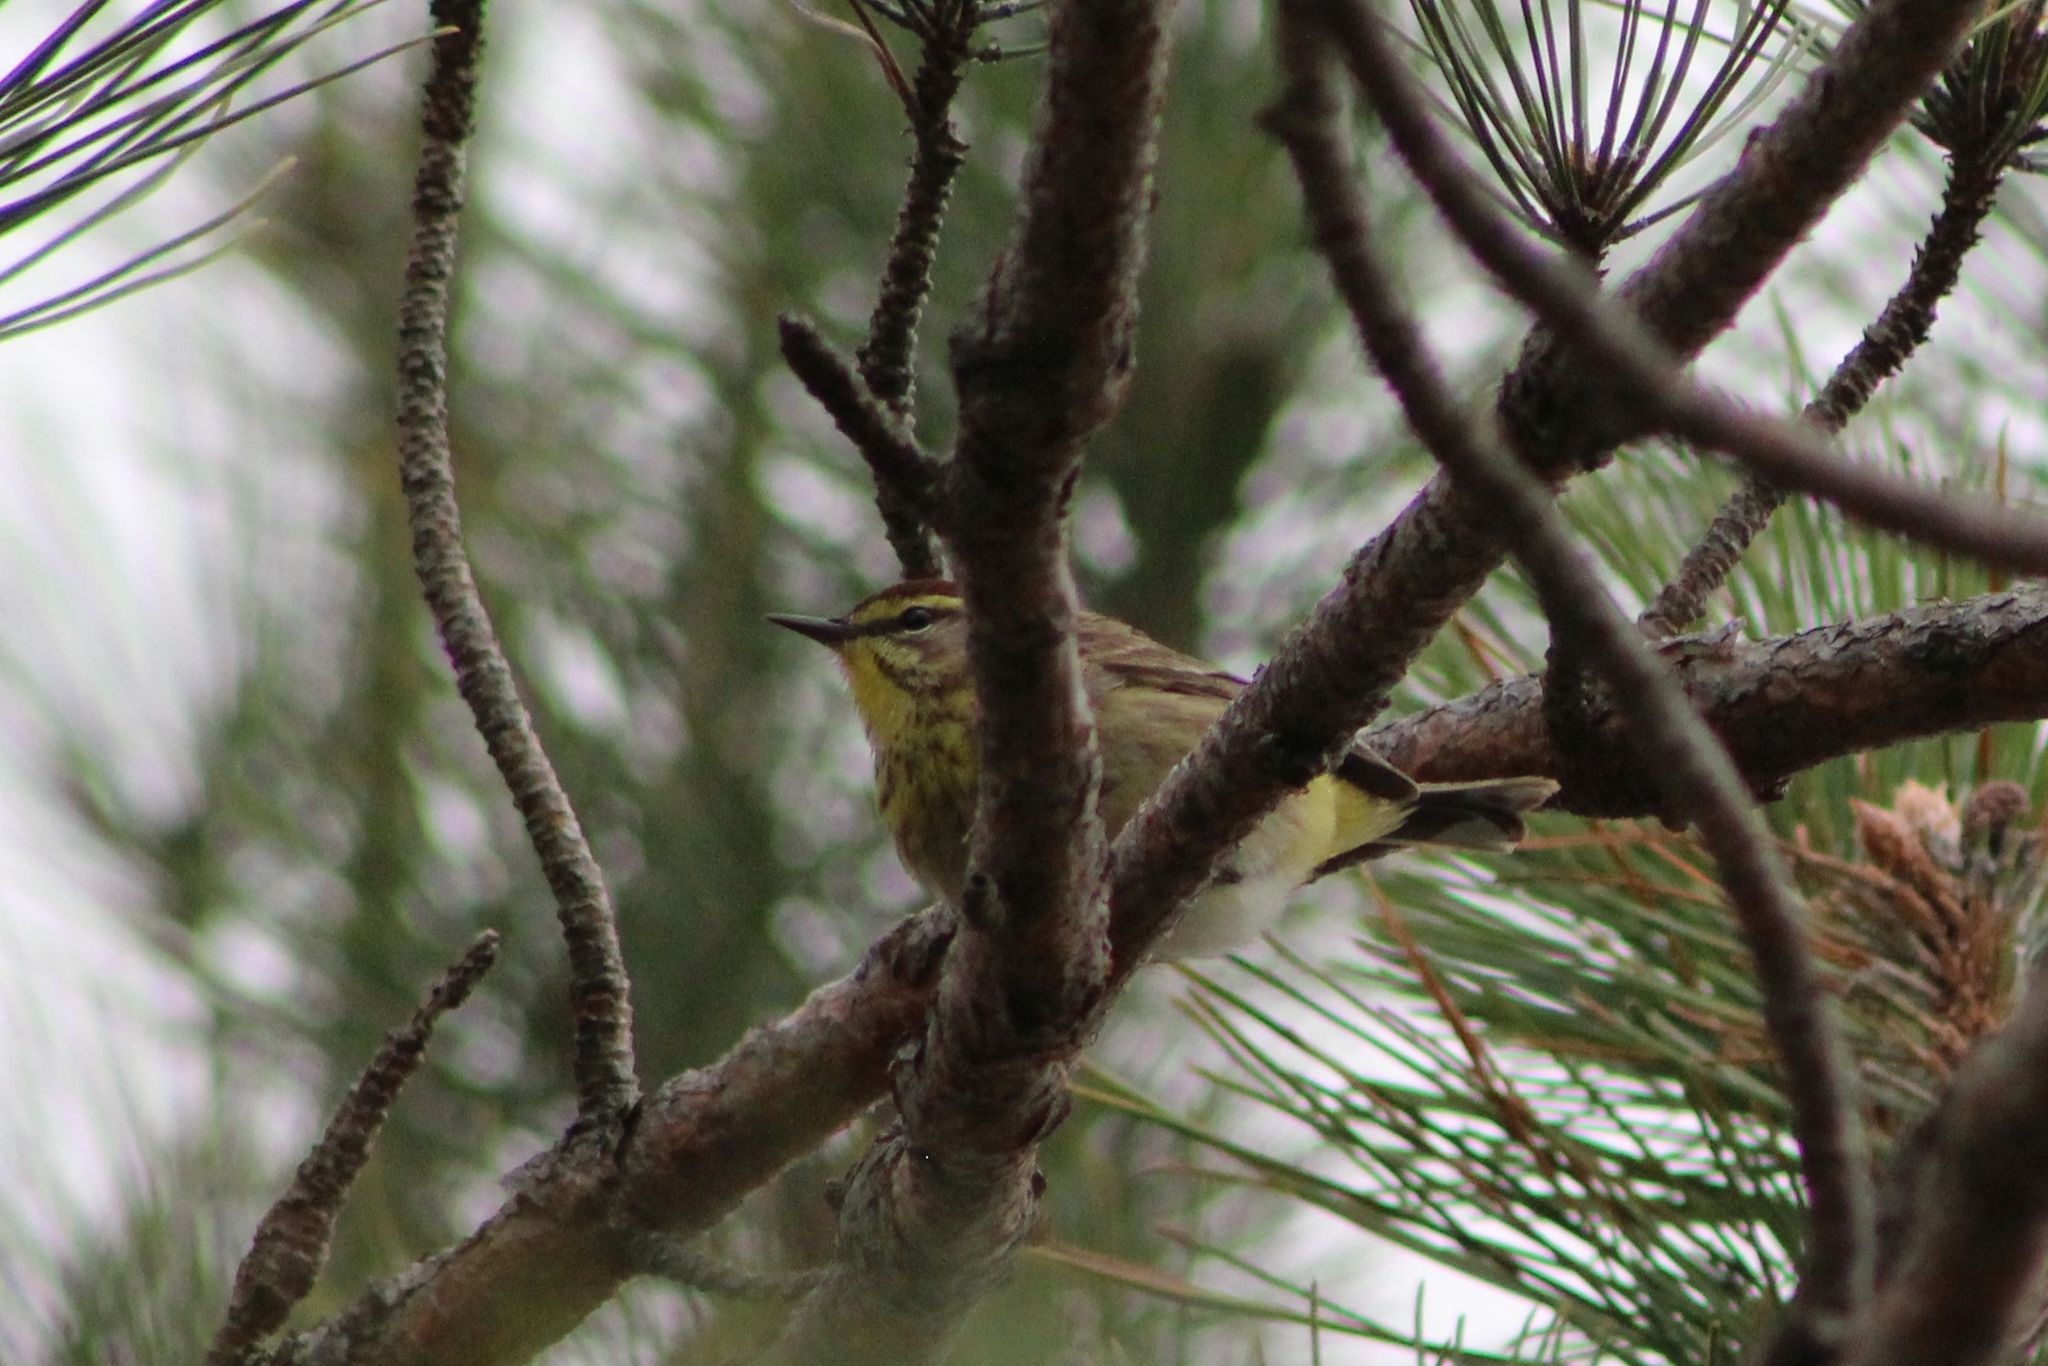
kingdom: Animalia
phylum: Chordata
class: Aves
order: Passeriformes
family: Parulidae
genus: Setophaga
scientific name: Setophaga palmarum
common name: Palm warbler
